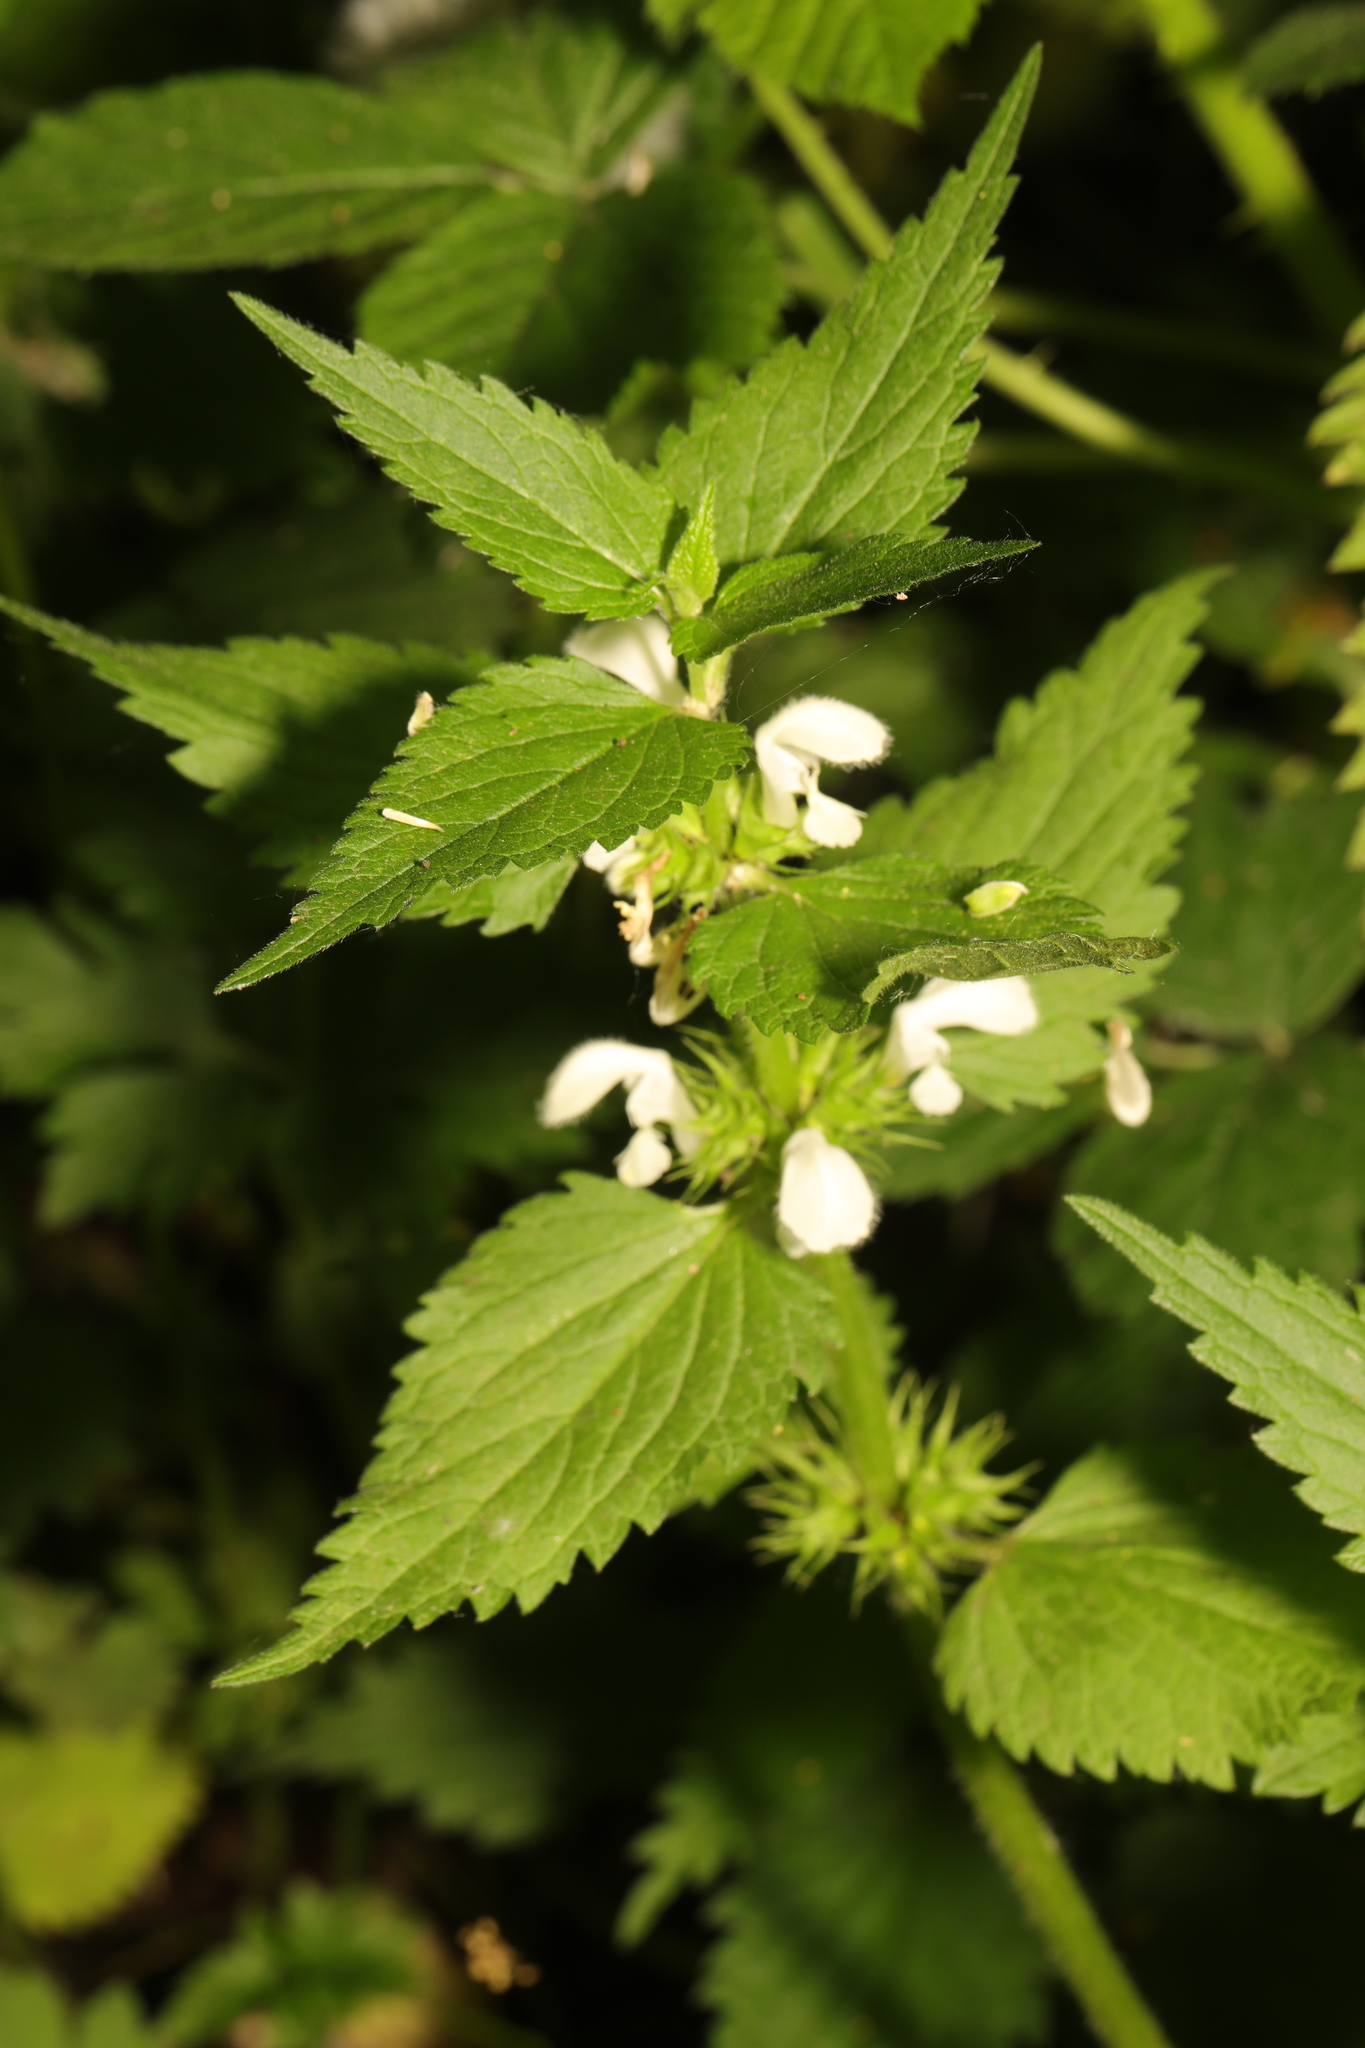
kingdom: Plantae
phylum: Tracheophyta
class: Magnoliopsida
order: Lamiales
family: Lamiaceae
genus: Lamium
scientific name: Lamium album
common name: White dead-nettle
